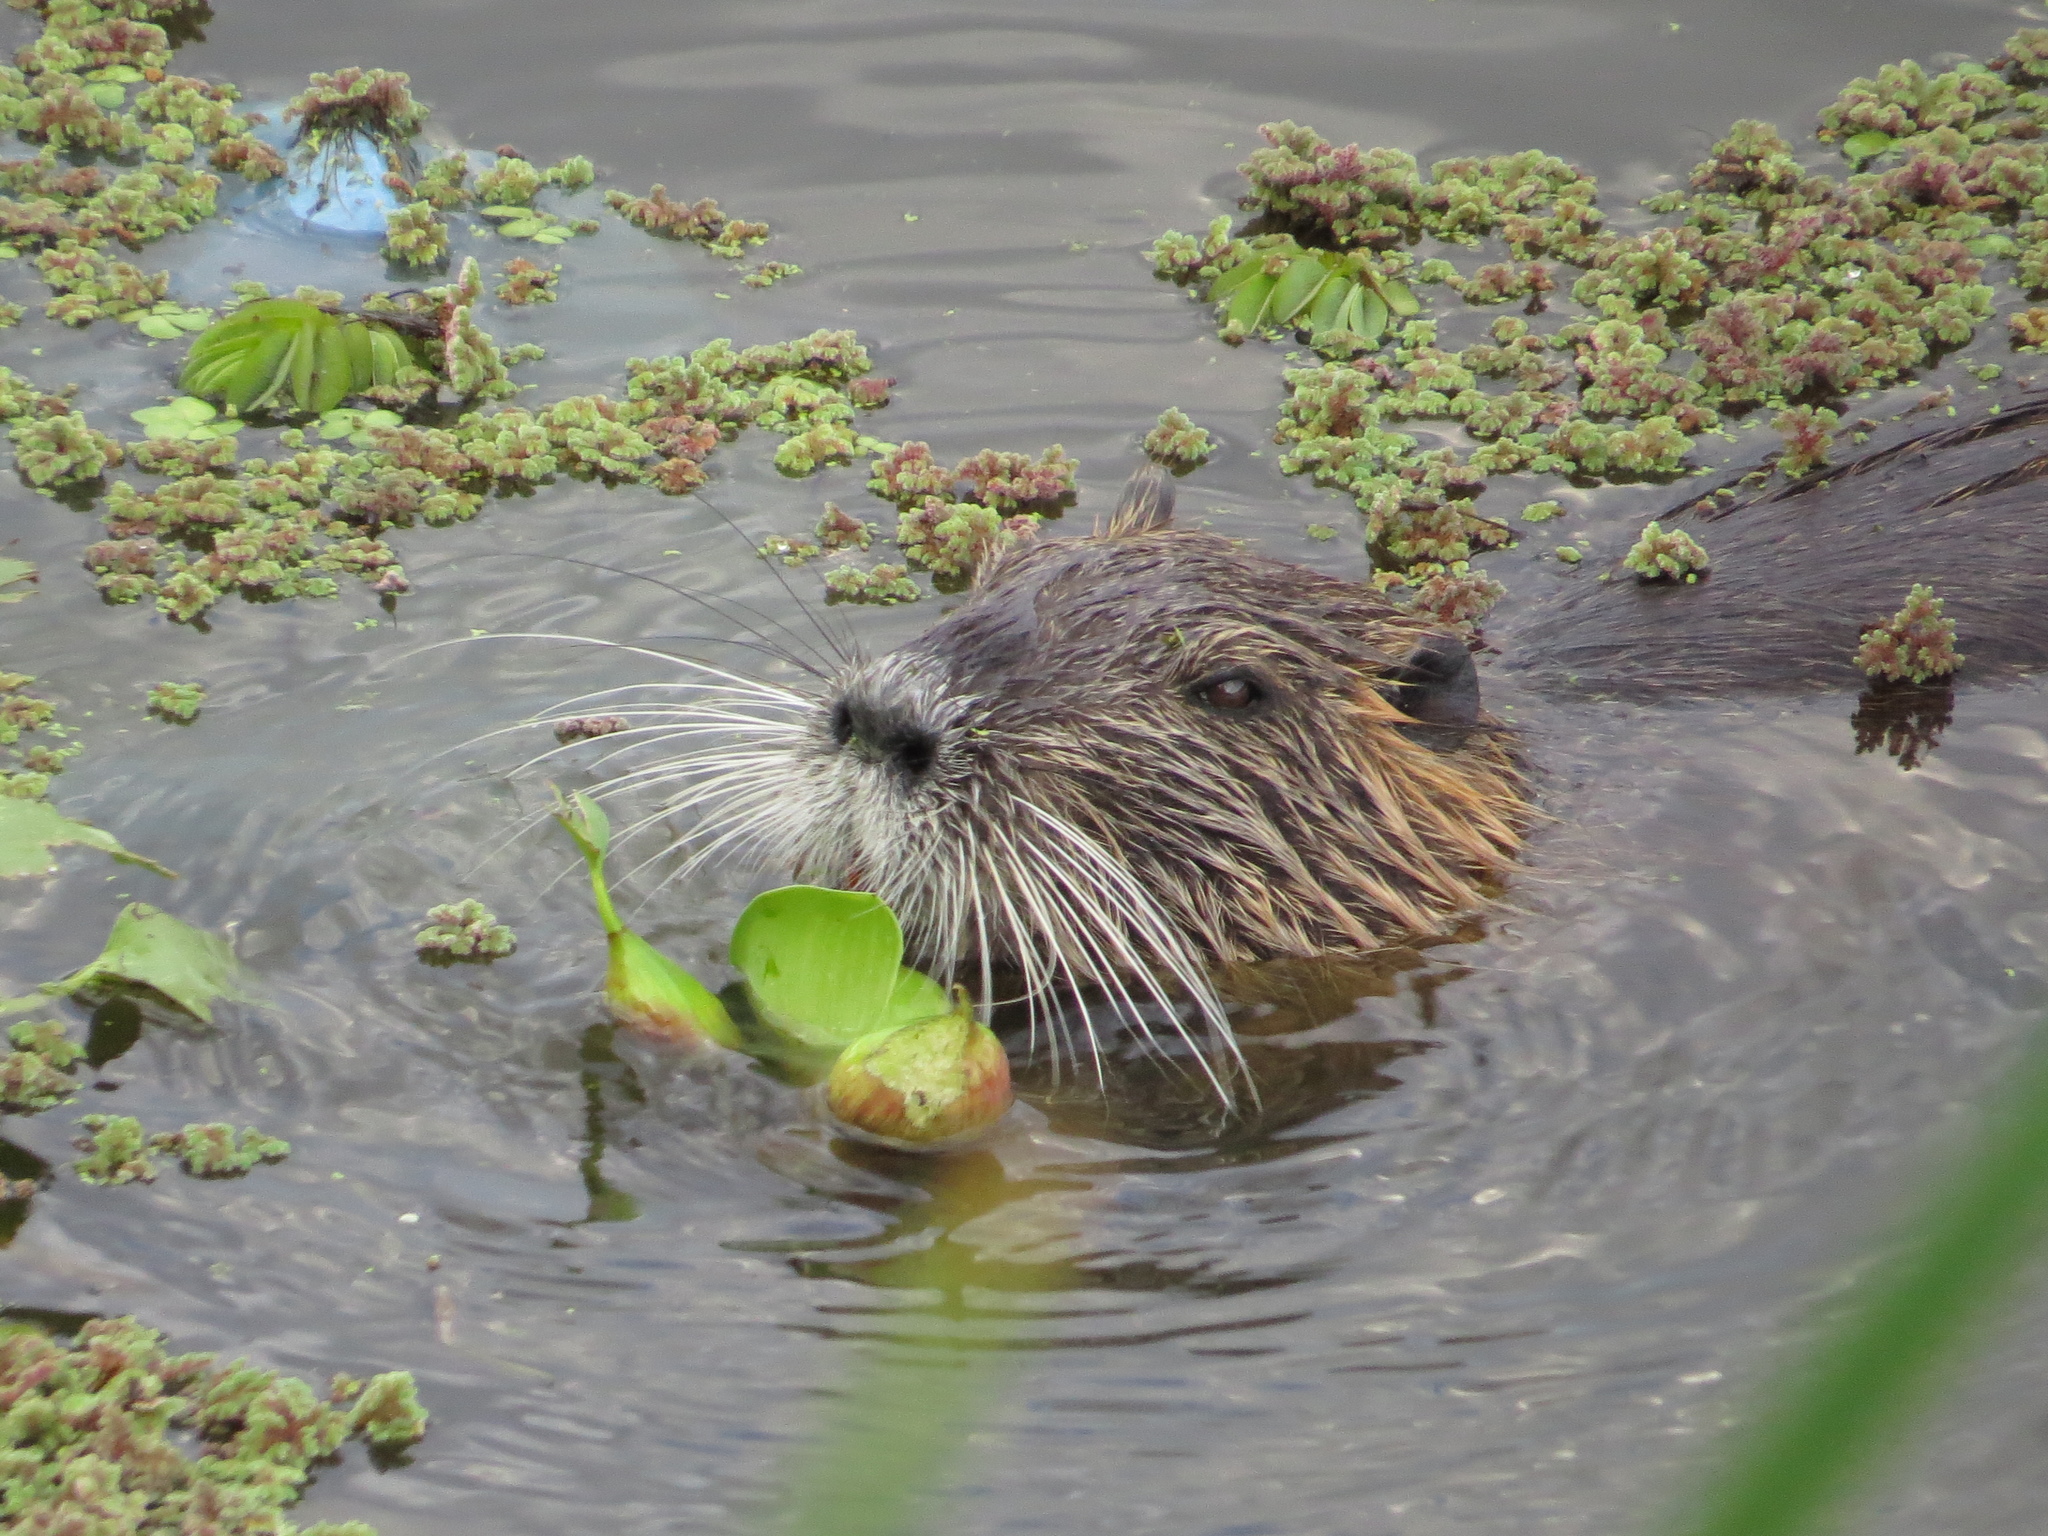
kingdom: Animalia
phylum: Chordata
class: Mammalia
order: Rodentia
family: Myocastoridae
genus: Myocastor
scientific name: Myocastor coypus
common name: Coypu
